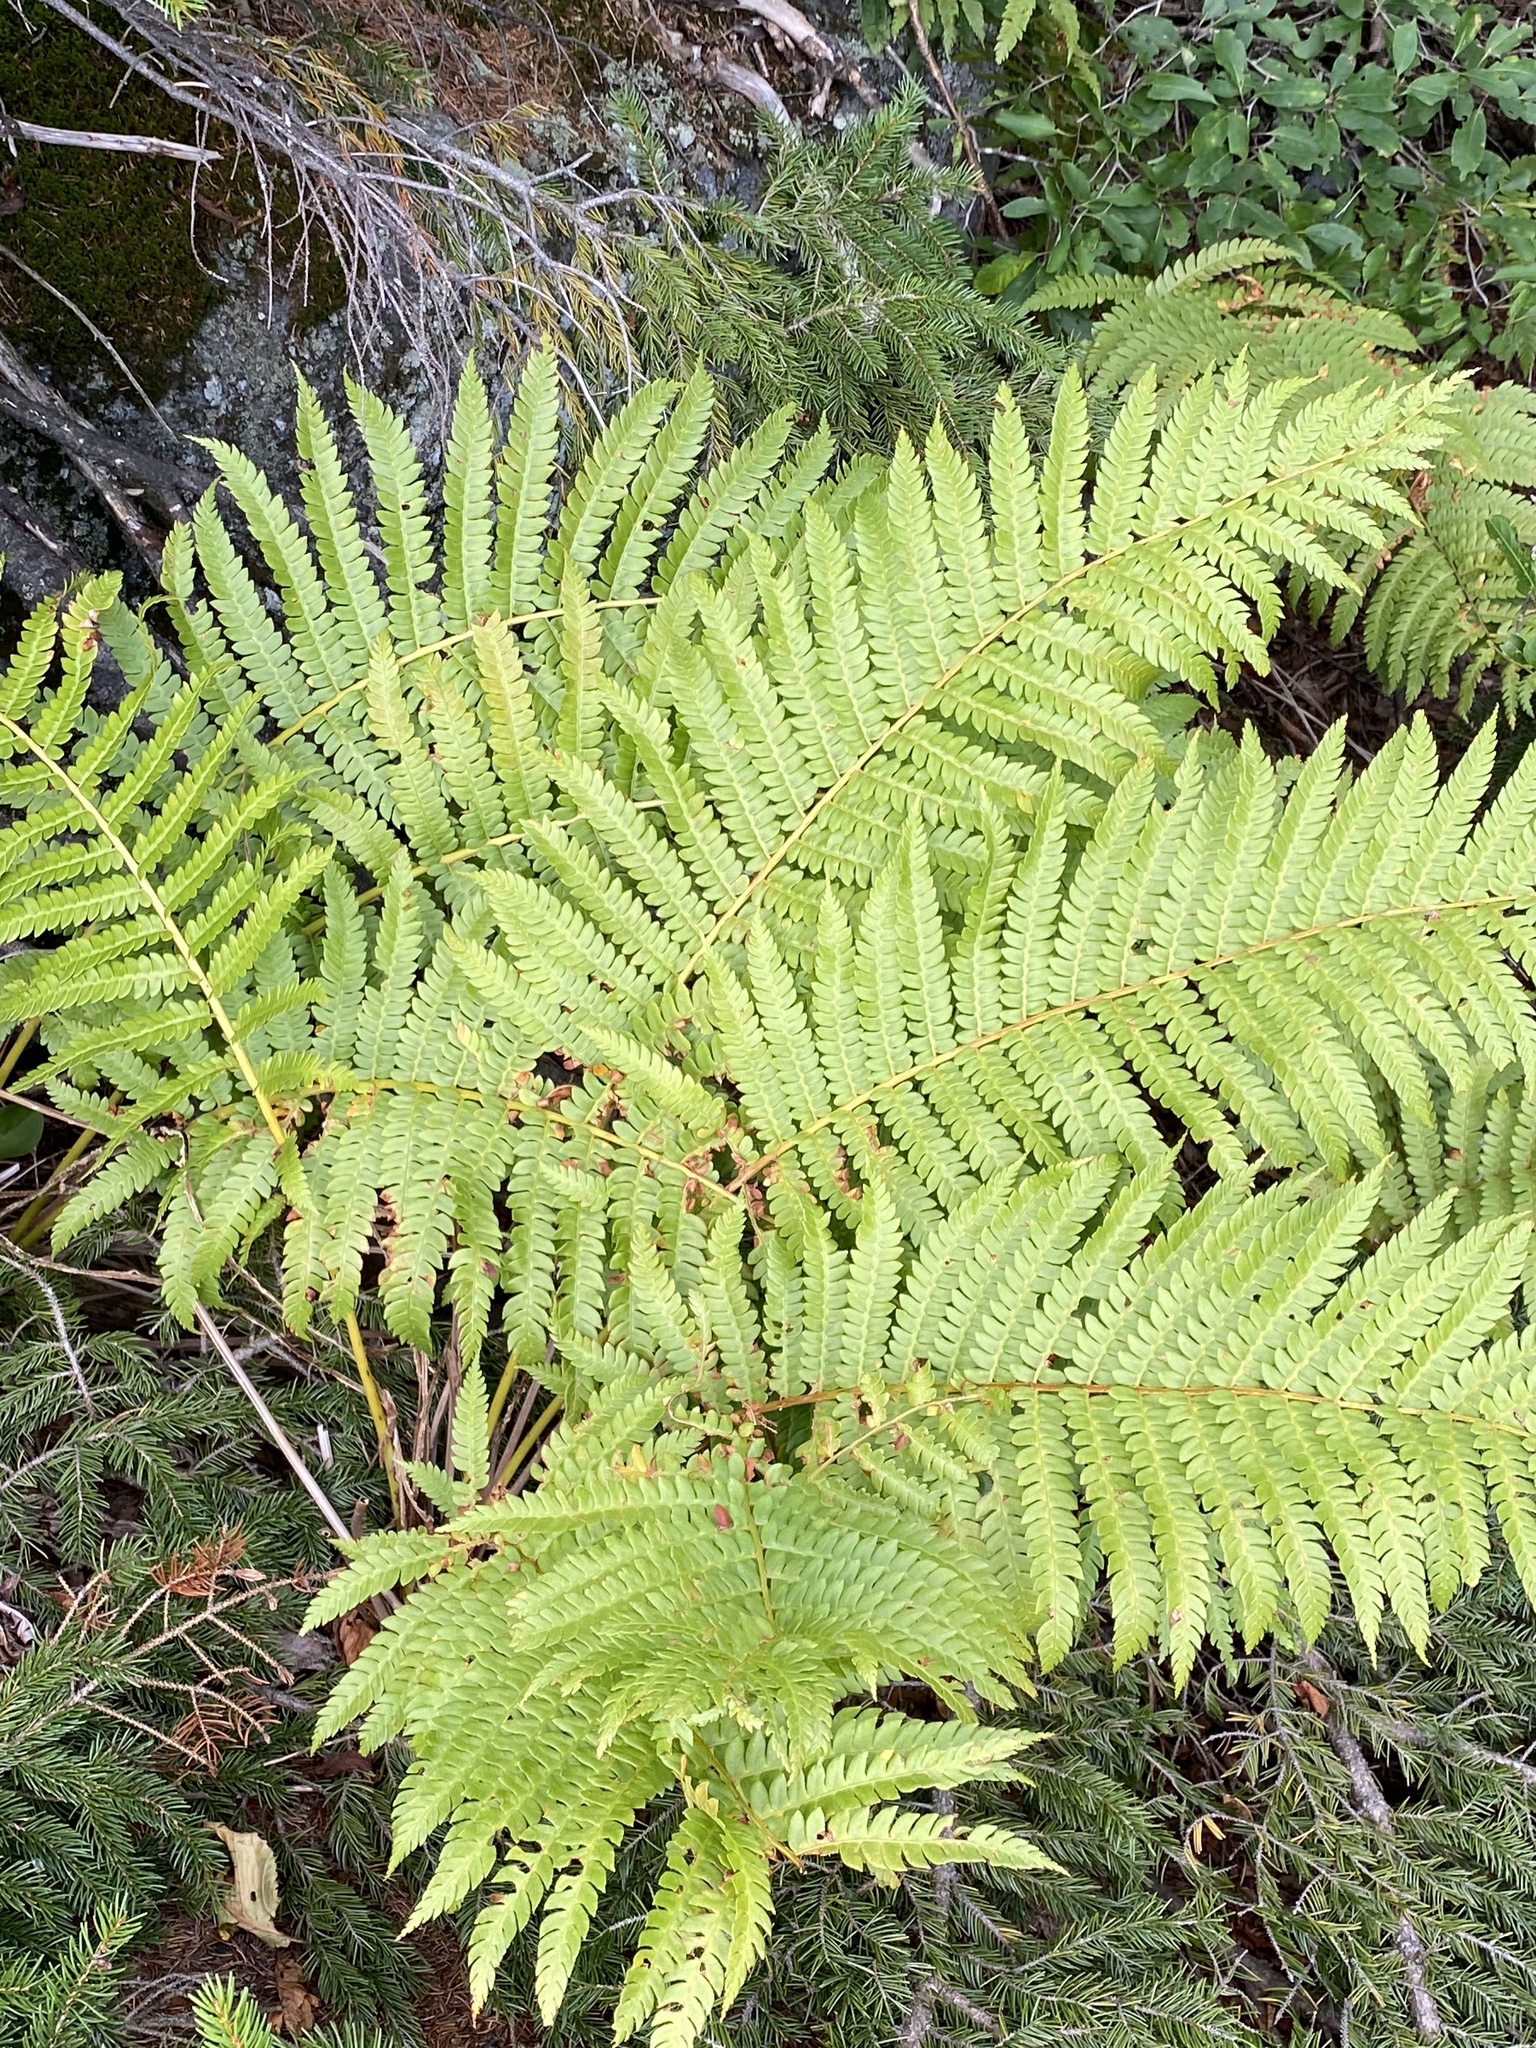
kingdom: Plantae
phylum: Tracheophyta
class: Polypodiopsida
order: Osmundales
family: Osmundaceae
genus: Osmundastrum
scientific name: Osmundastrum cinnamomeum
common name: Cinnamon fern
